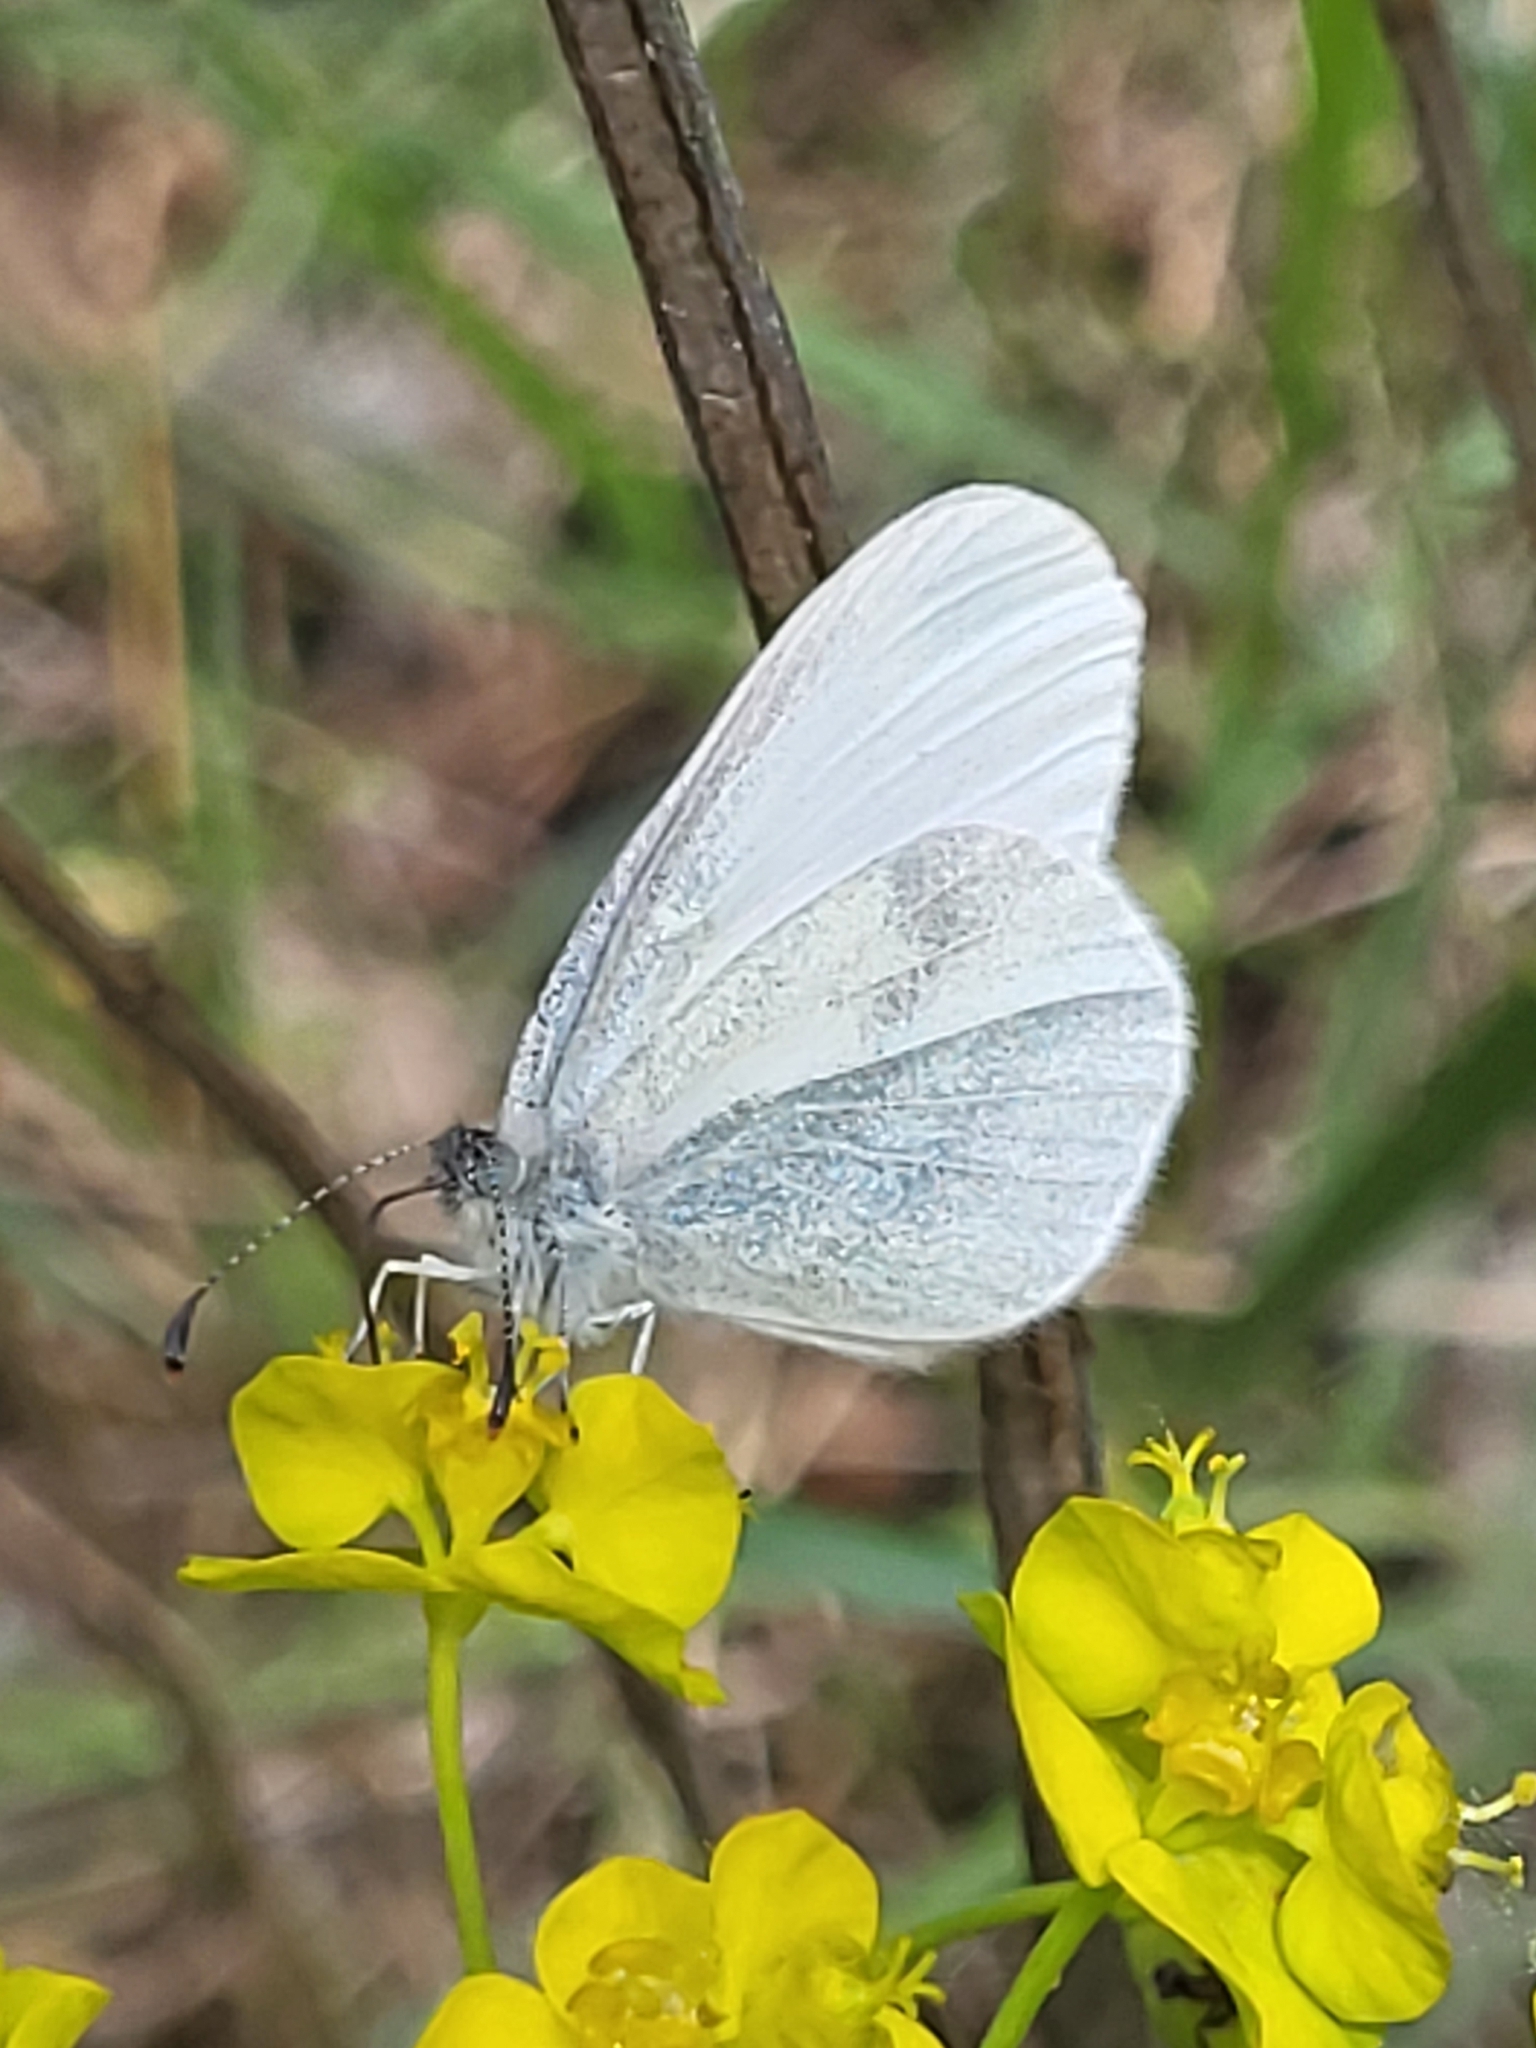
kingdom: Animalia
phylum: Arthropoda
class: Insecta
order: Lepidoptera
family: Pieridae
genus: Leptidea
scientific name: Leptidea
